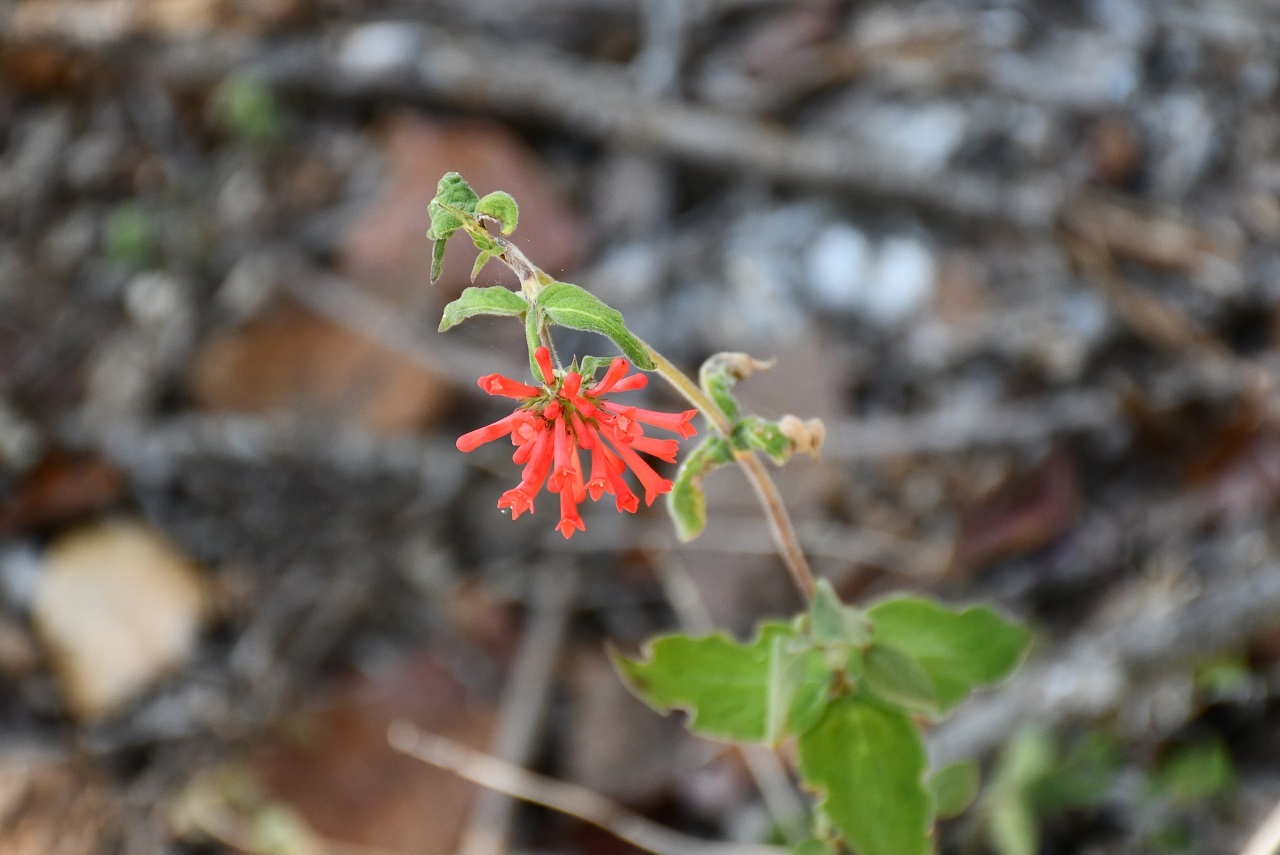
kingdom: Plantae
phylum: Tracheophyta
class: Magnoliopsida
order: Gentianales
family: Rubiaceae
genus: Bouvardia
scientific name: Bouvardia ternifolia
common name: Scarlet bouvardia
